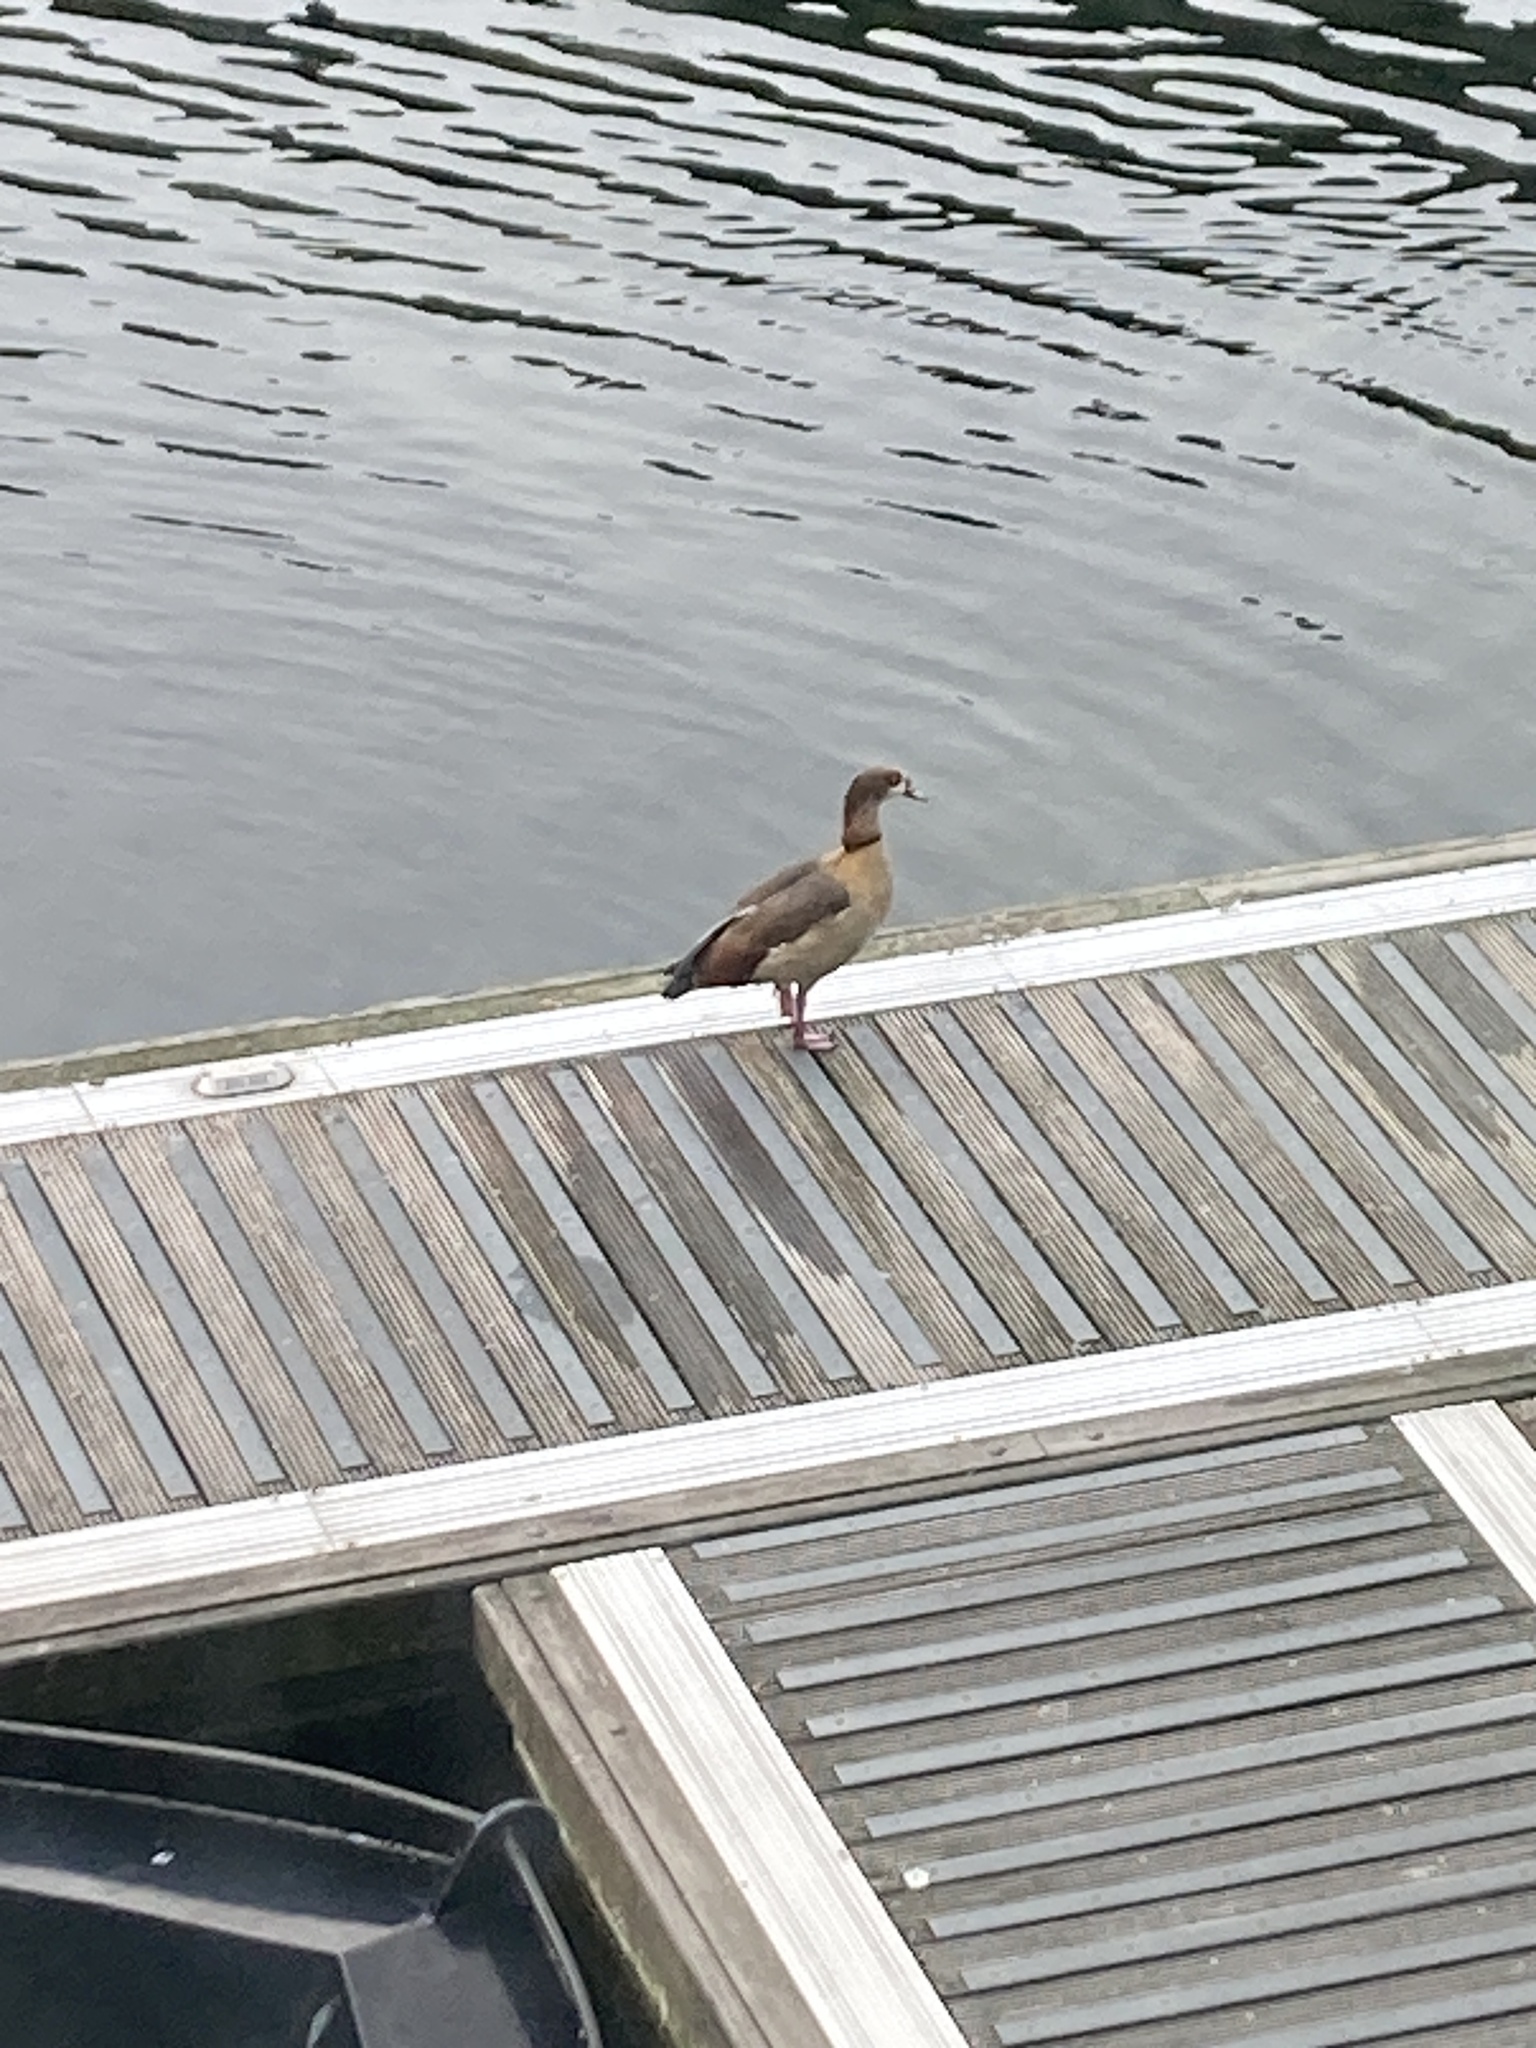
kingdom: Animalia
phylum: Chordata
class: Aves
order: Anseriformes
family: Anatidae
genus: Alopochen
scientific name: Alopochen aegyptiaca
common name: Egyptian goose
